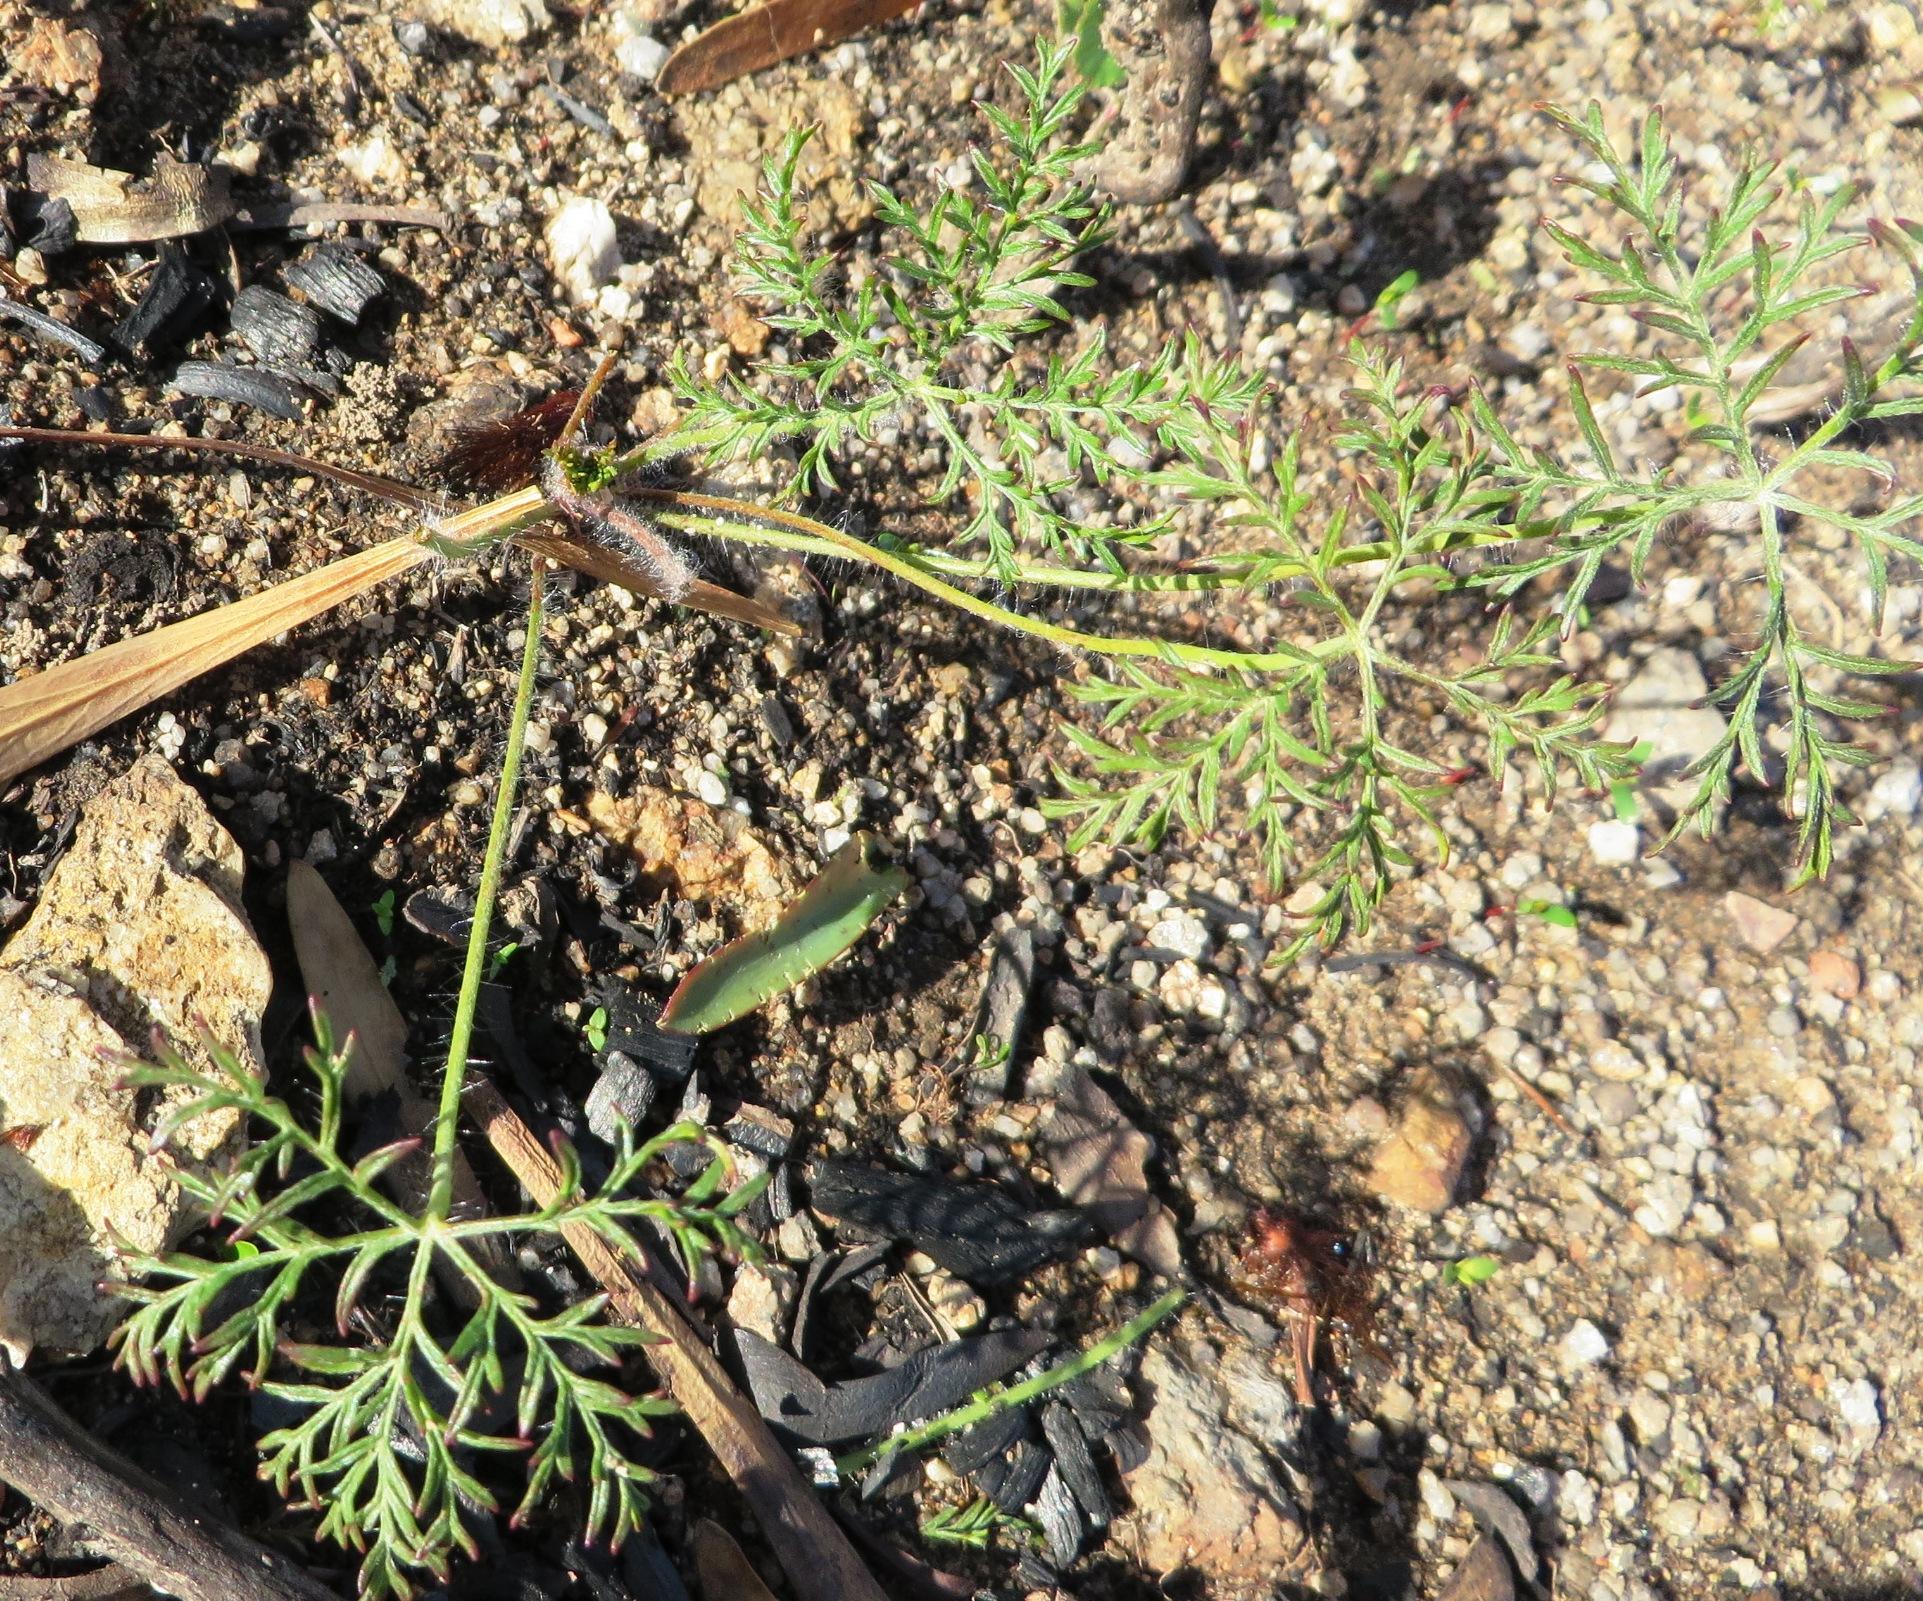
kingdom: Plantae
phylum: Tracheophyta
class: Magnoliopsida
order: Geraniales
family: Geraniaceae
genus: Monsonia
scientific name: Monsonia speciosa
